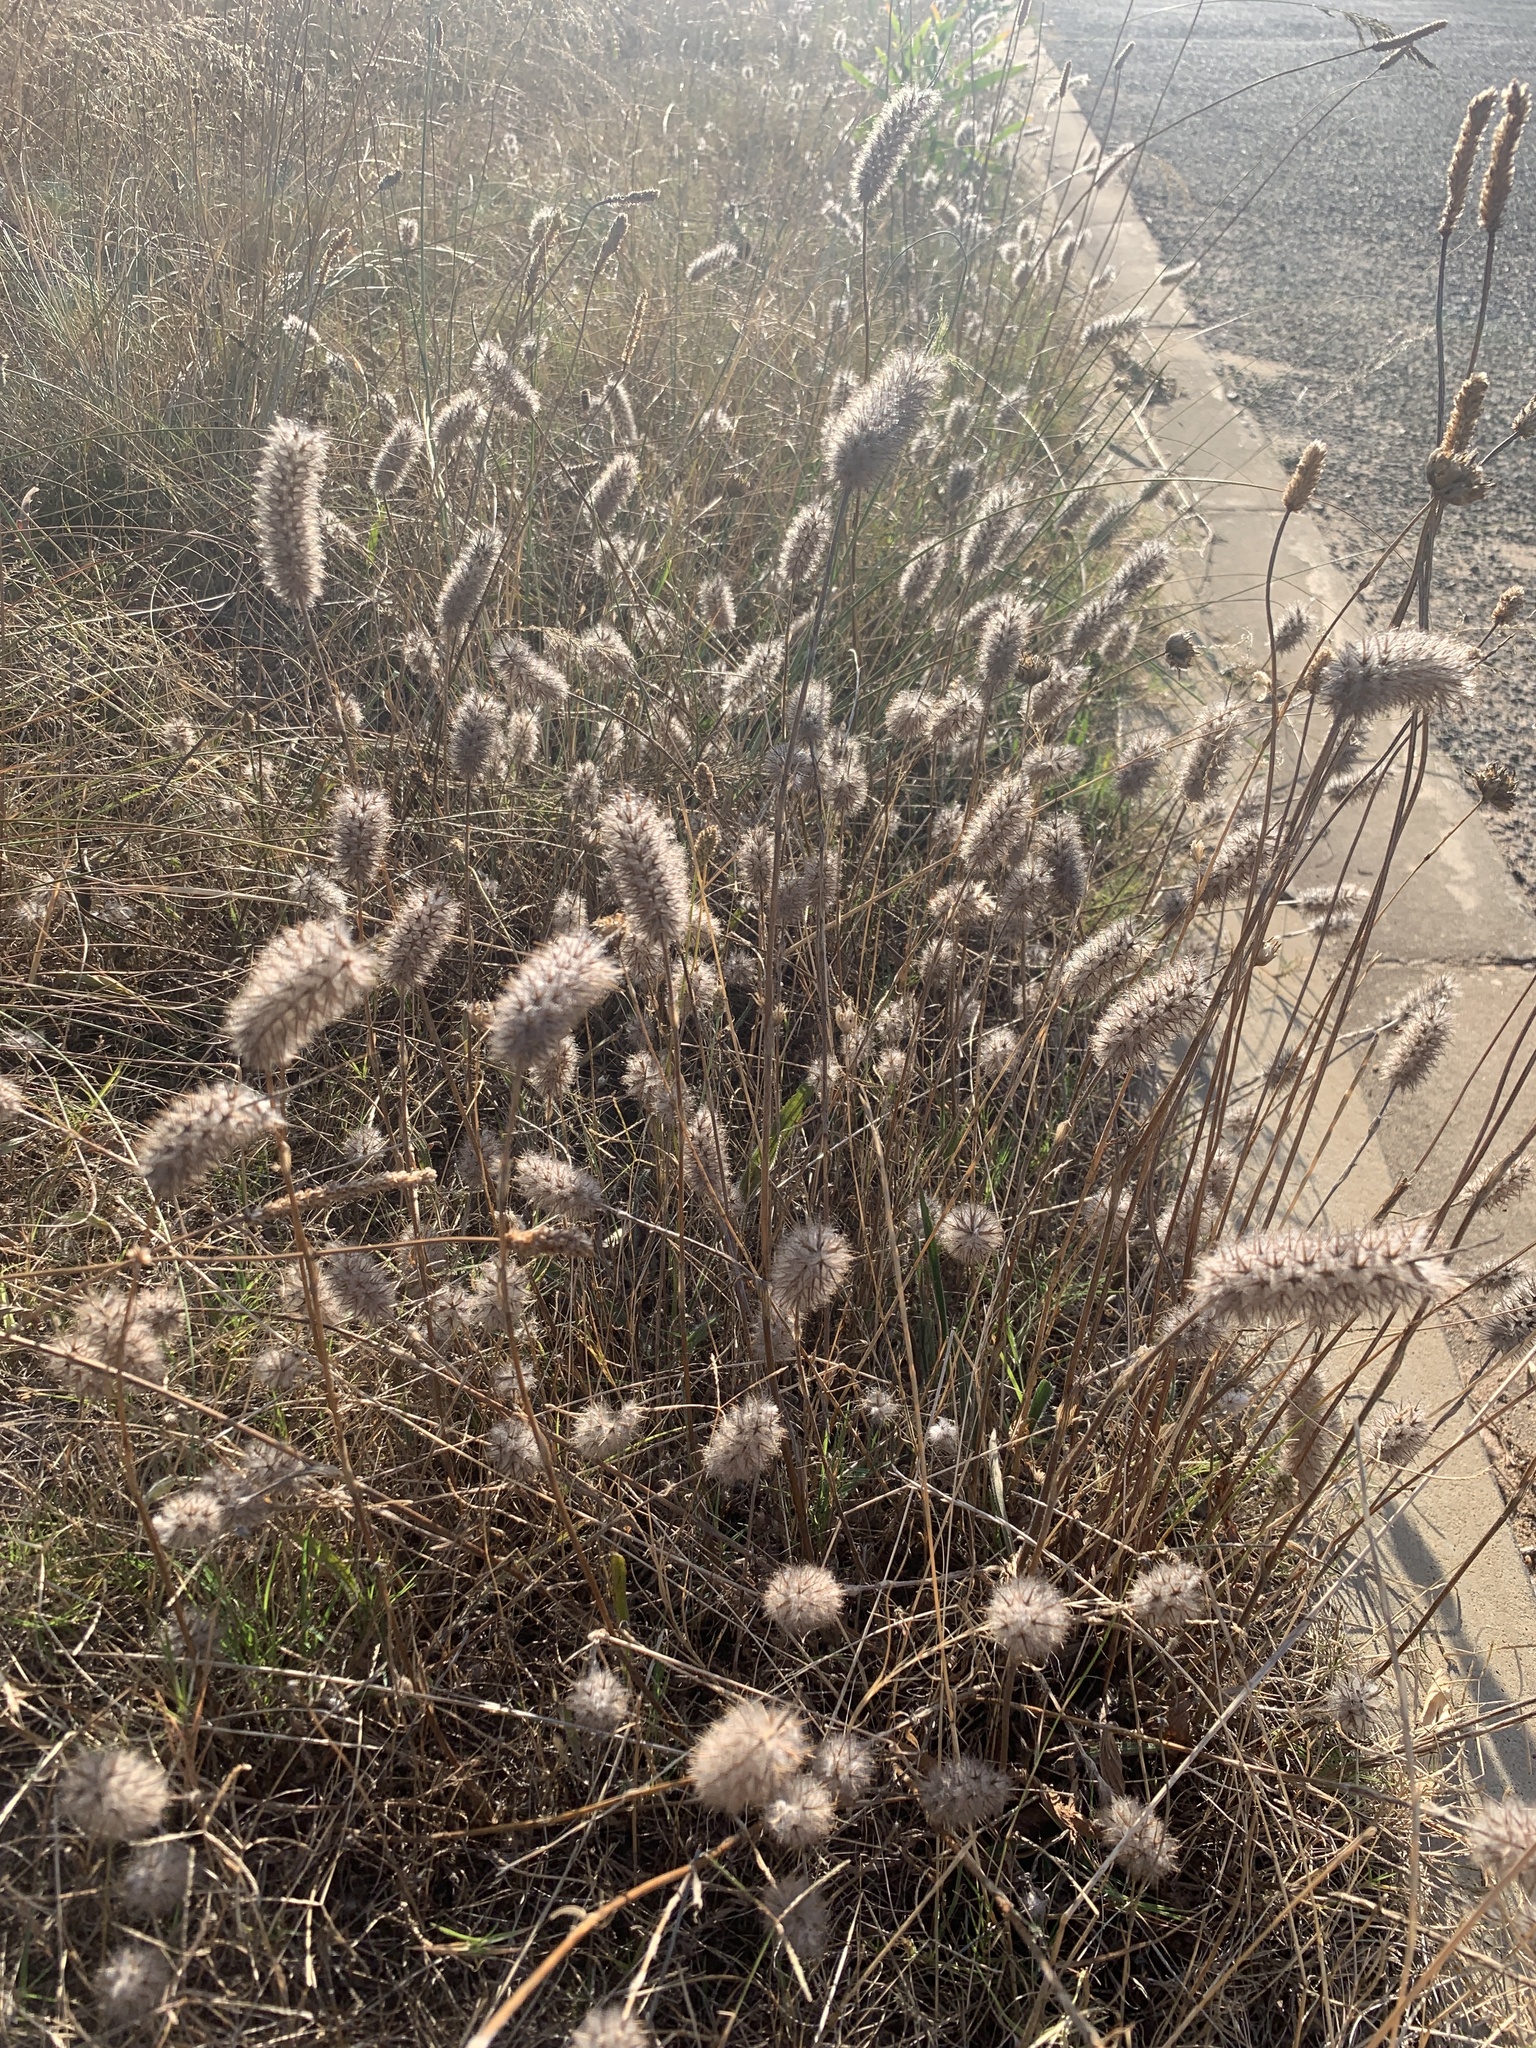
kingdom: Plantae
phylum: Tracheophyta
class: Magnoliopsida
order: Fabales
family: Fabaceae
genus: Trifolium
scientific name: Trifolium angustifolium
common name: Narrow clover
